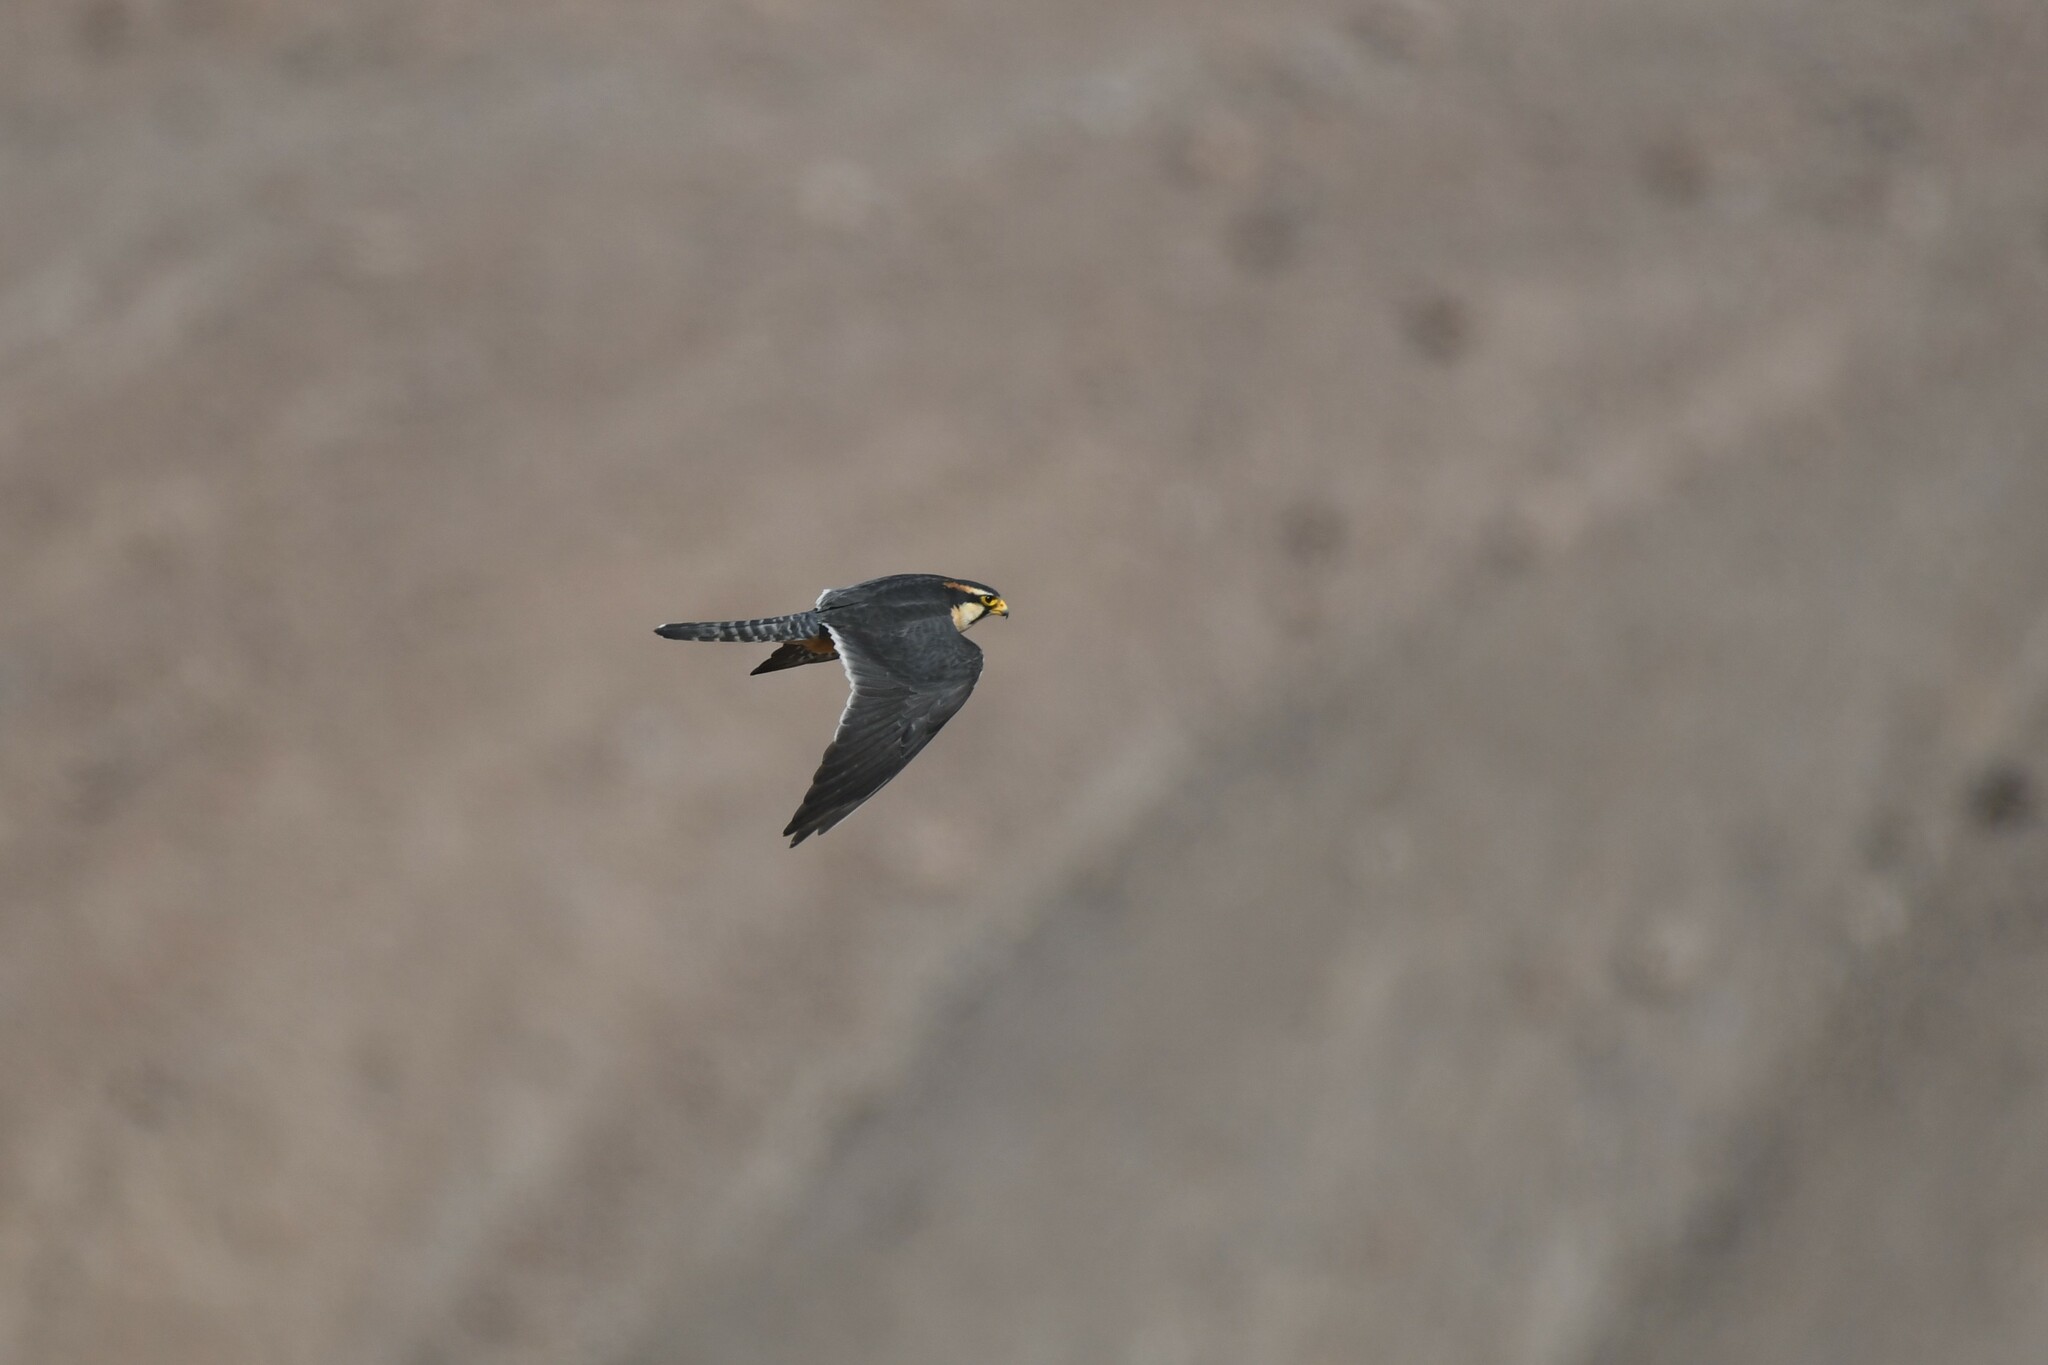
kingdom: Animalia
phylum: Chordata
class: Aves
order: Falconiformes
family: Falconidae
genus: Falco
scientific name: Falco femoralis
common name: Aplomado falcon
